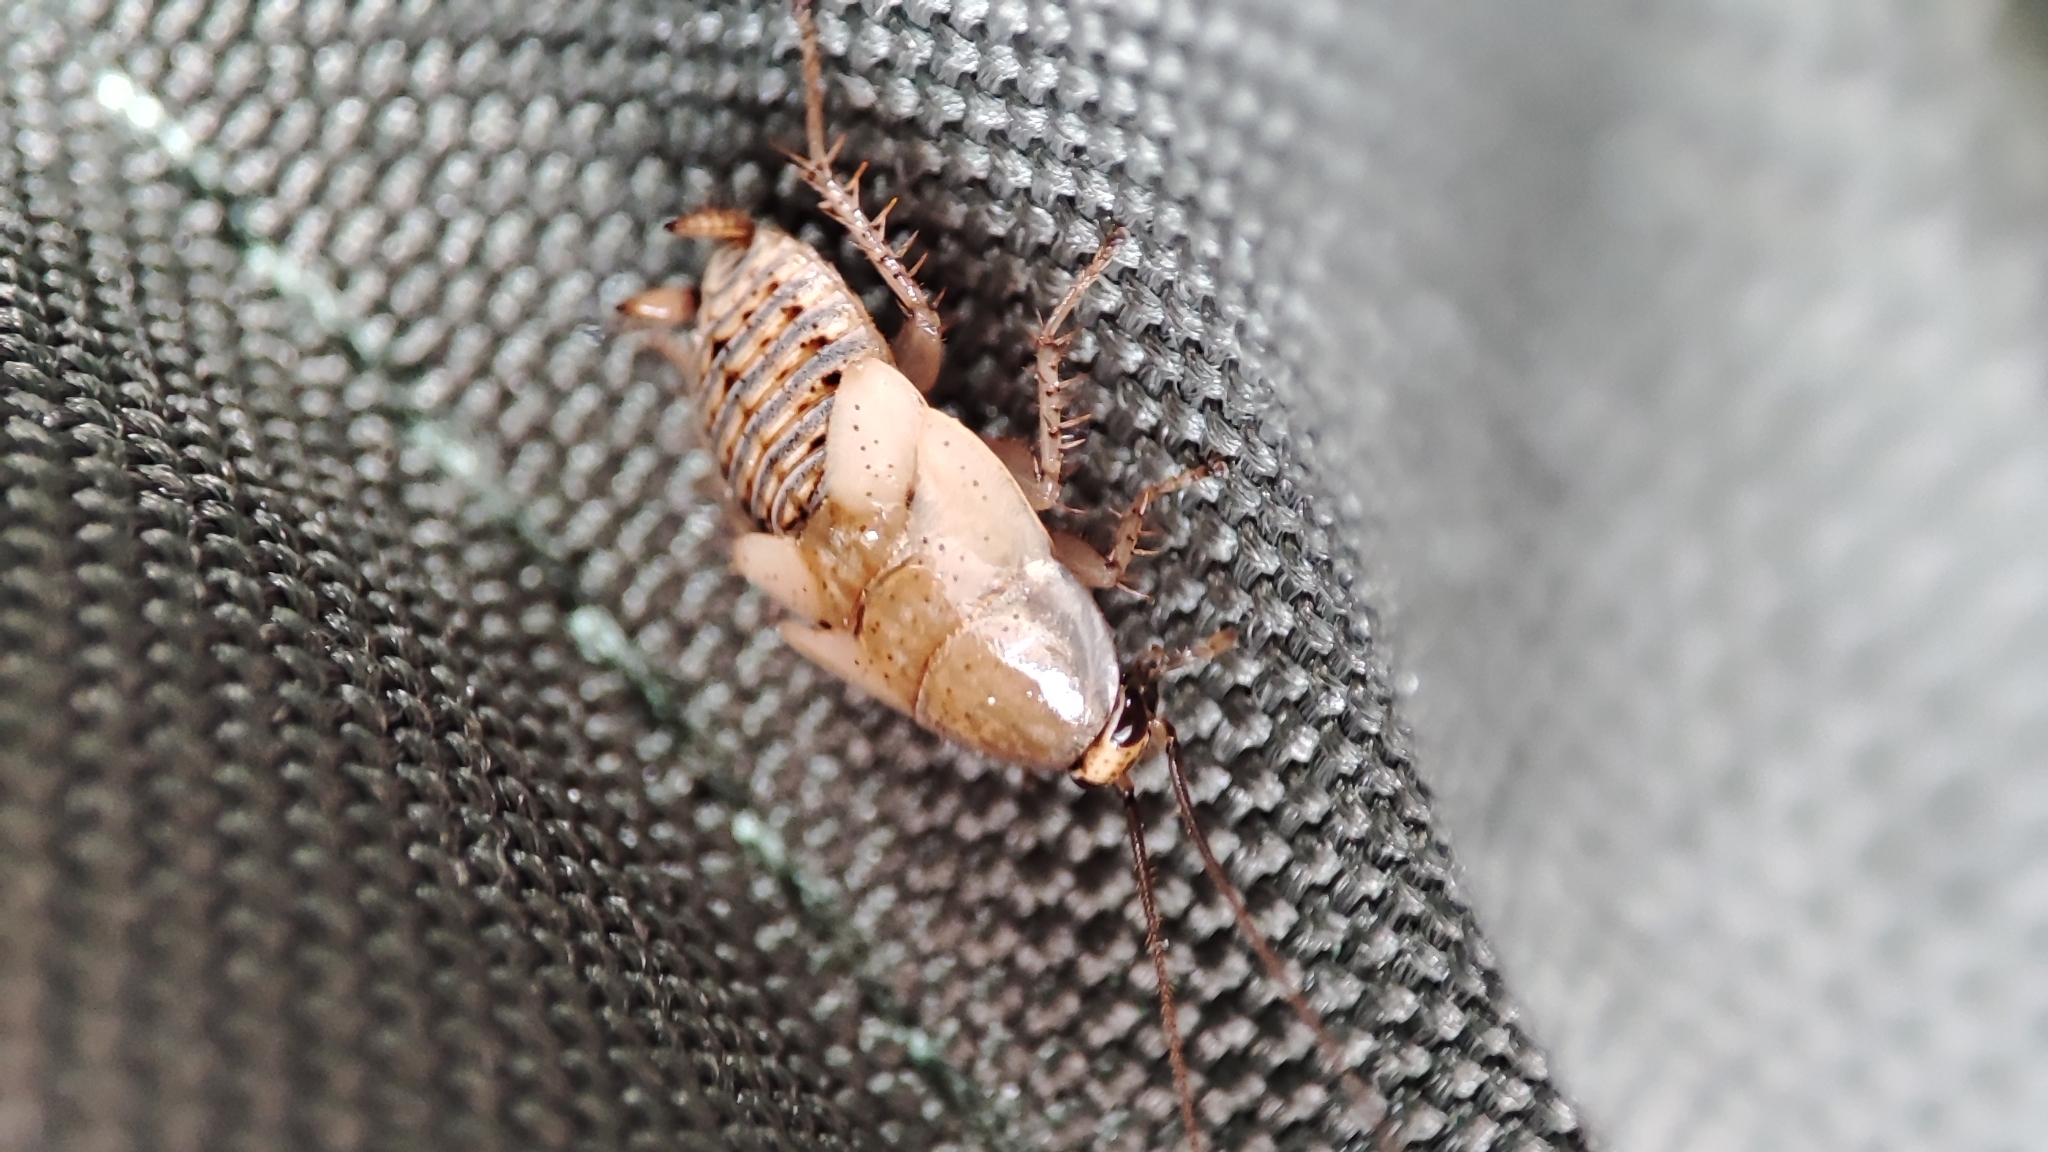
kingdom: Animalia
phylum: Arthropoda
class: Insecta
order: Blattodea
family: Ectobiidae
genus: Ectobius
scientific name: Ectobius vittiventris
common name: Garden cockroach
